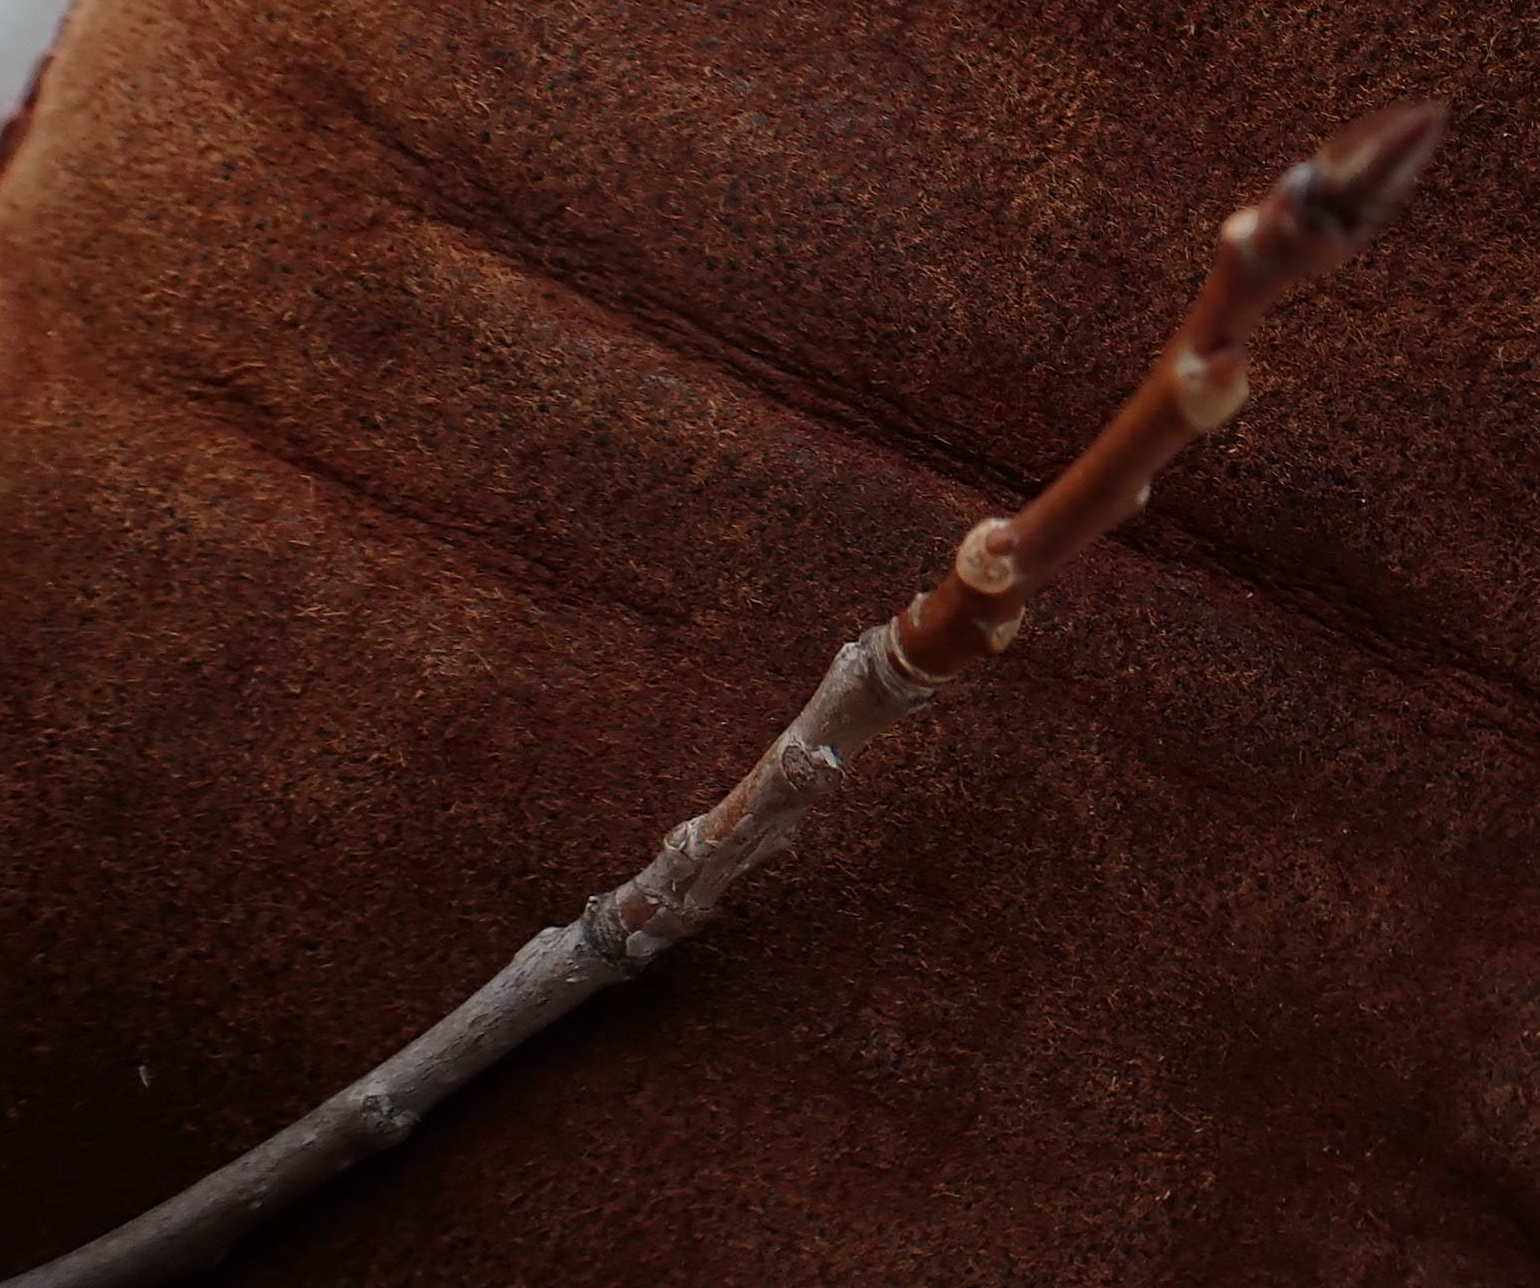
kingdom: Plantae
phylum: Tracheophyta
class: Magnoliopsida
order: Malpighiales
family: Salicaceae
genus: Populus
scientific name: Populus tremuloides
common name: Quaking aspen
